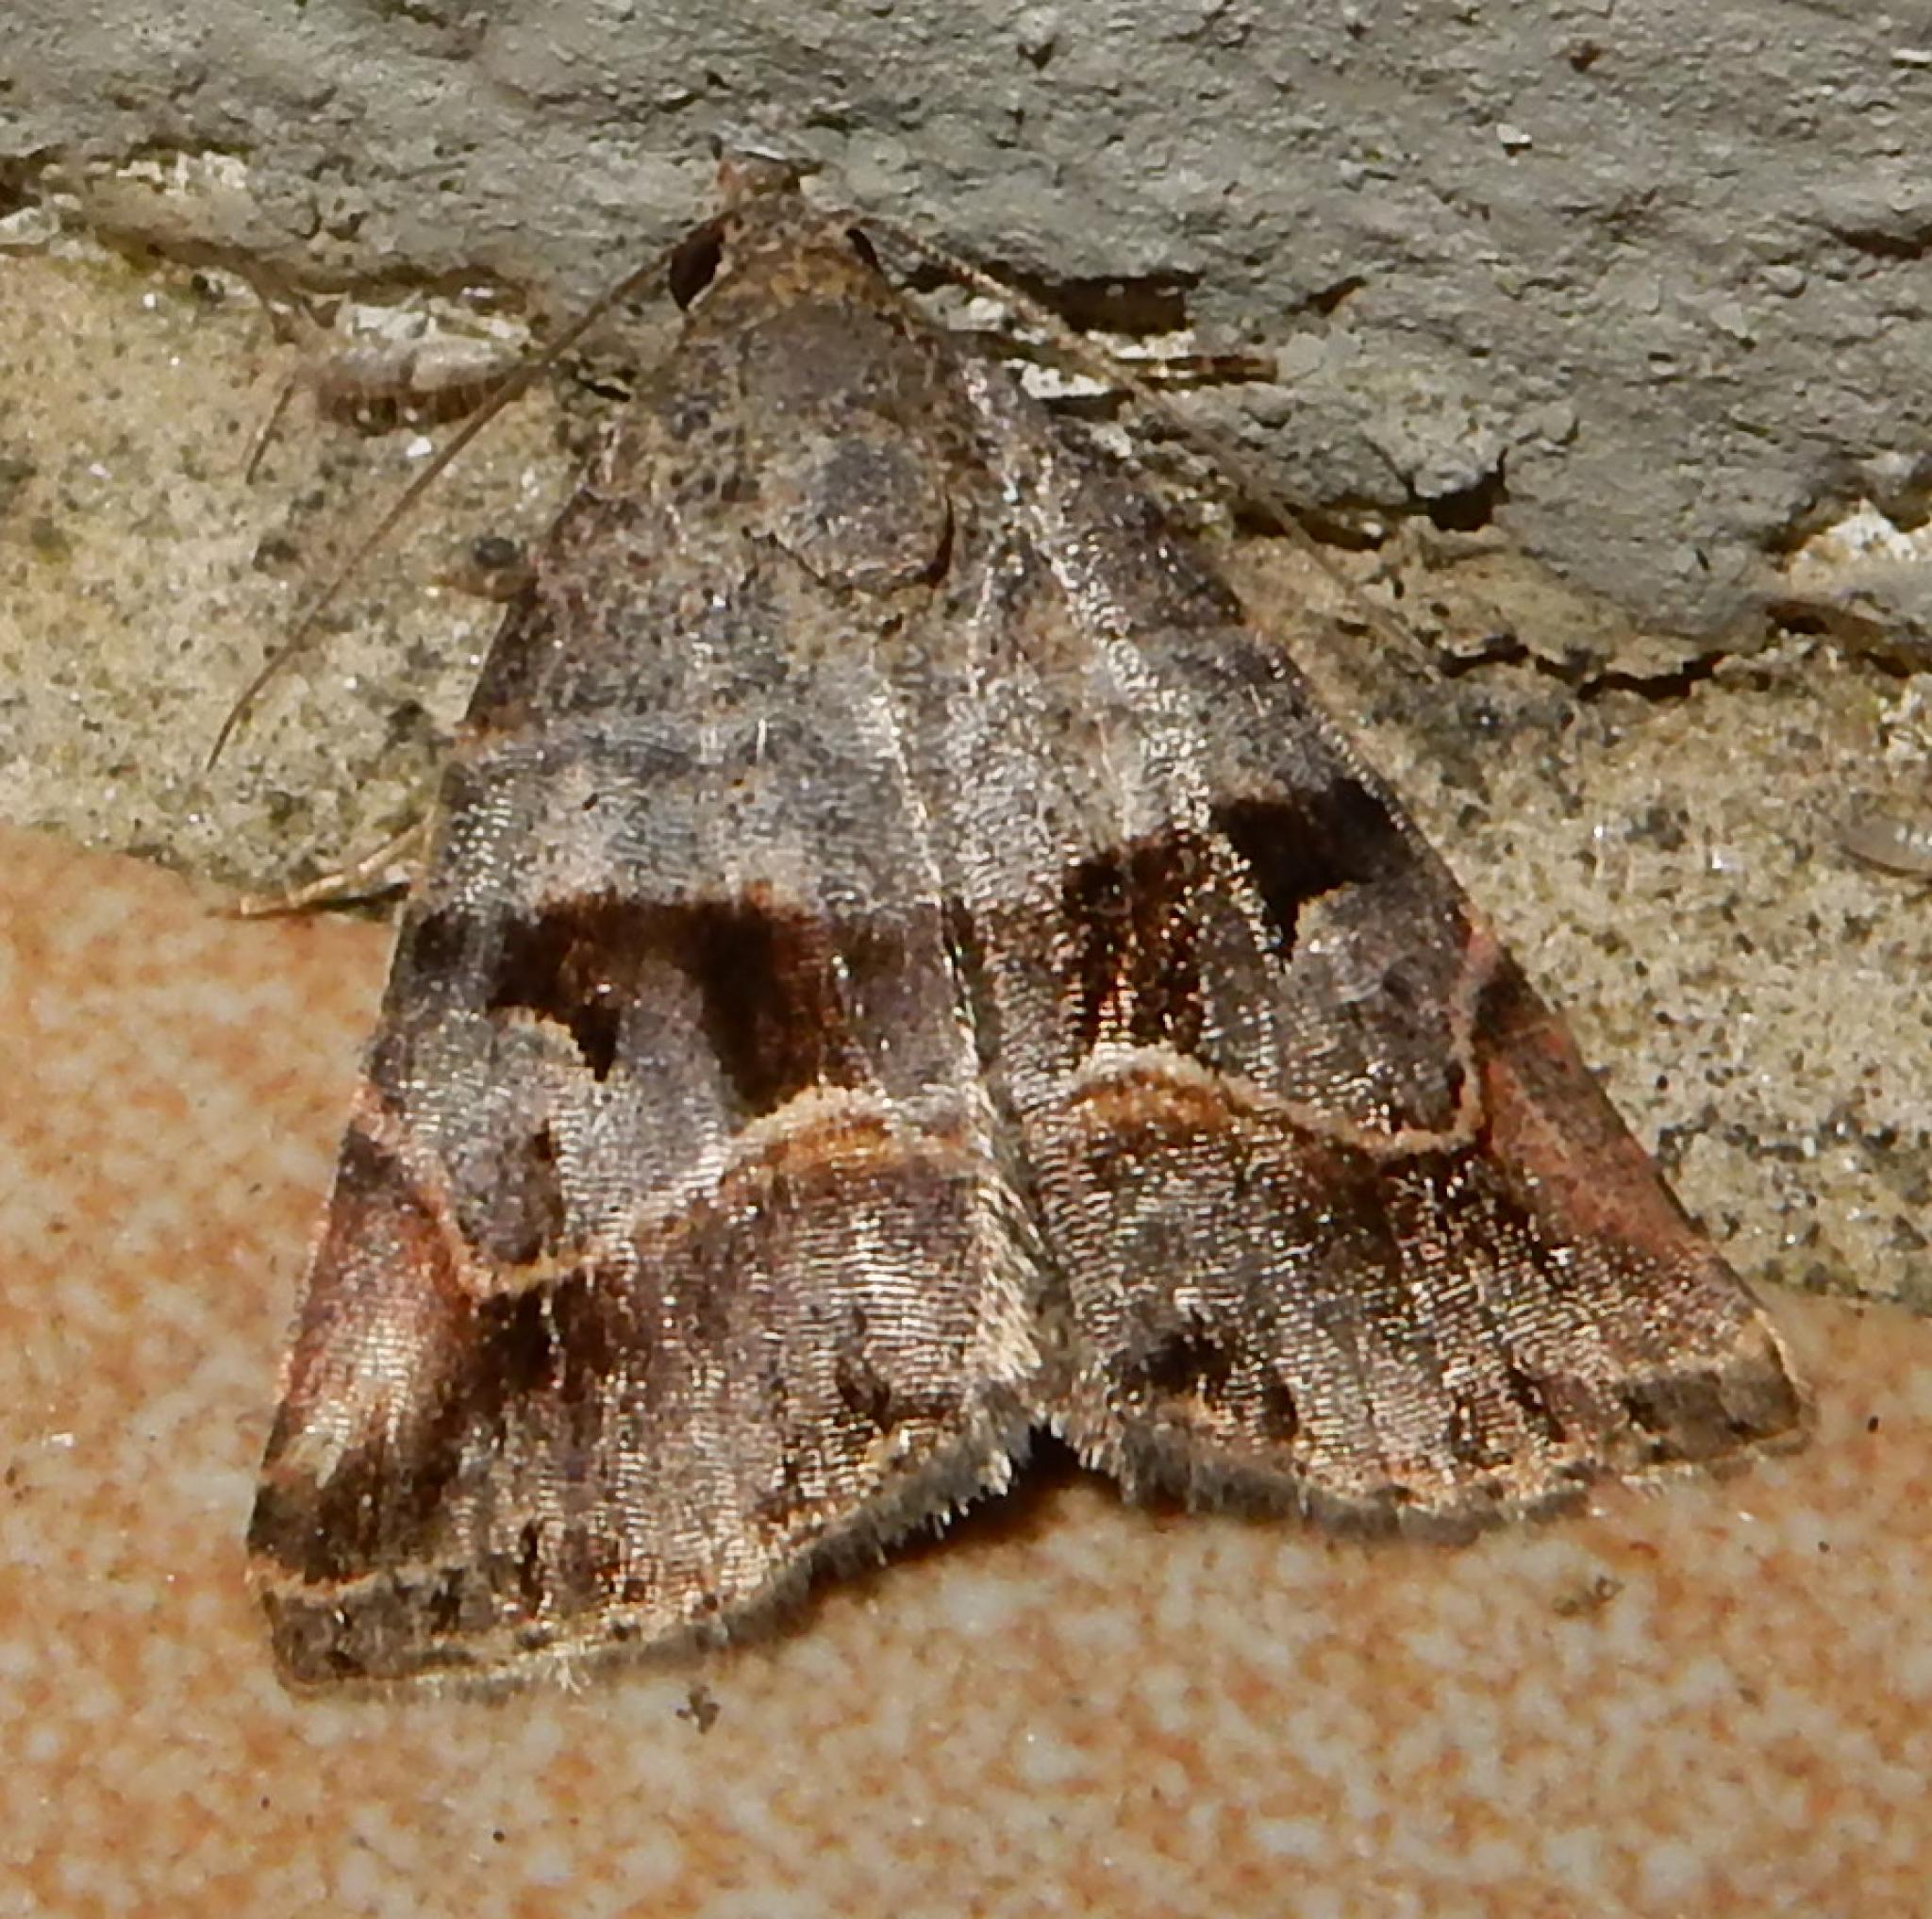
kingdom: Animalia
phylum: Arthropoda
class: Insecta
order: Lepidoptera
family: Noctuidae
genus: Ozarba
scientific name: Ozarba corniculans
